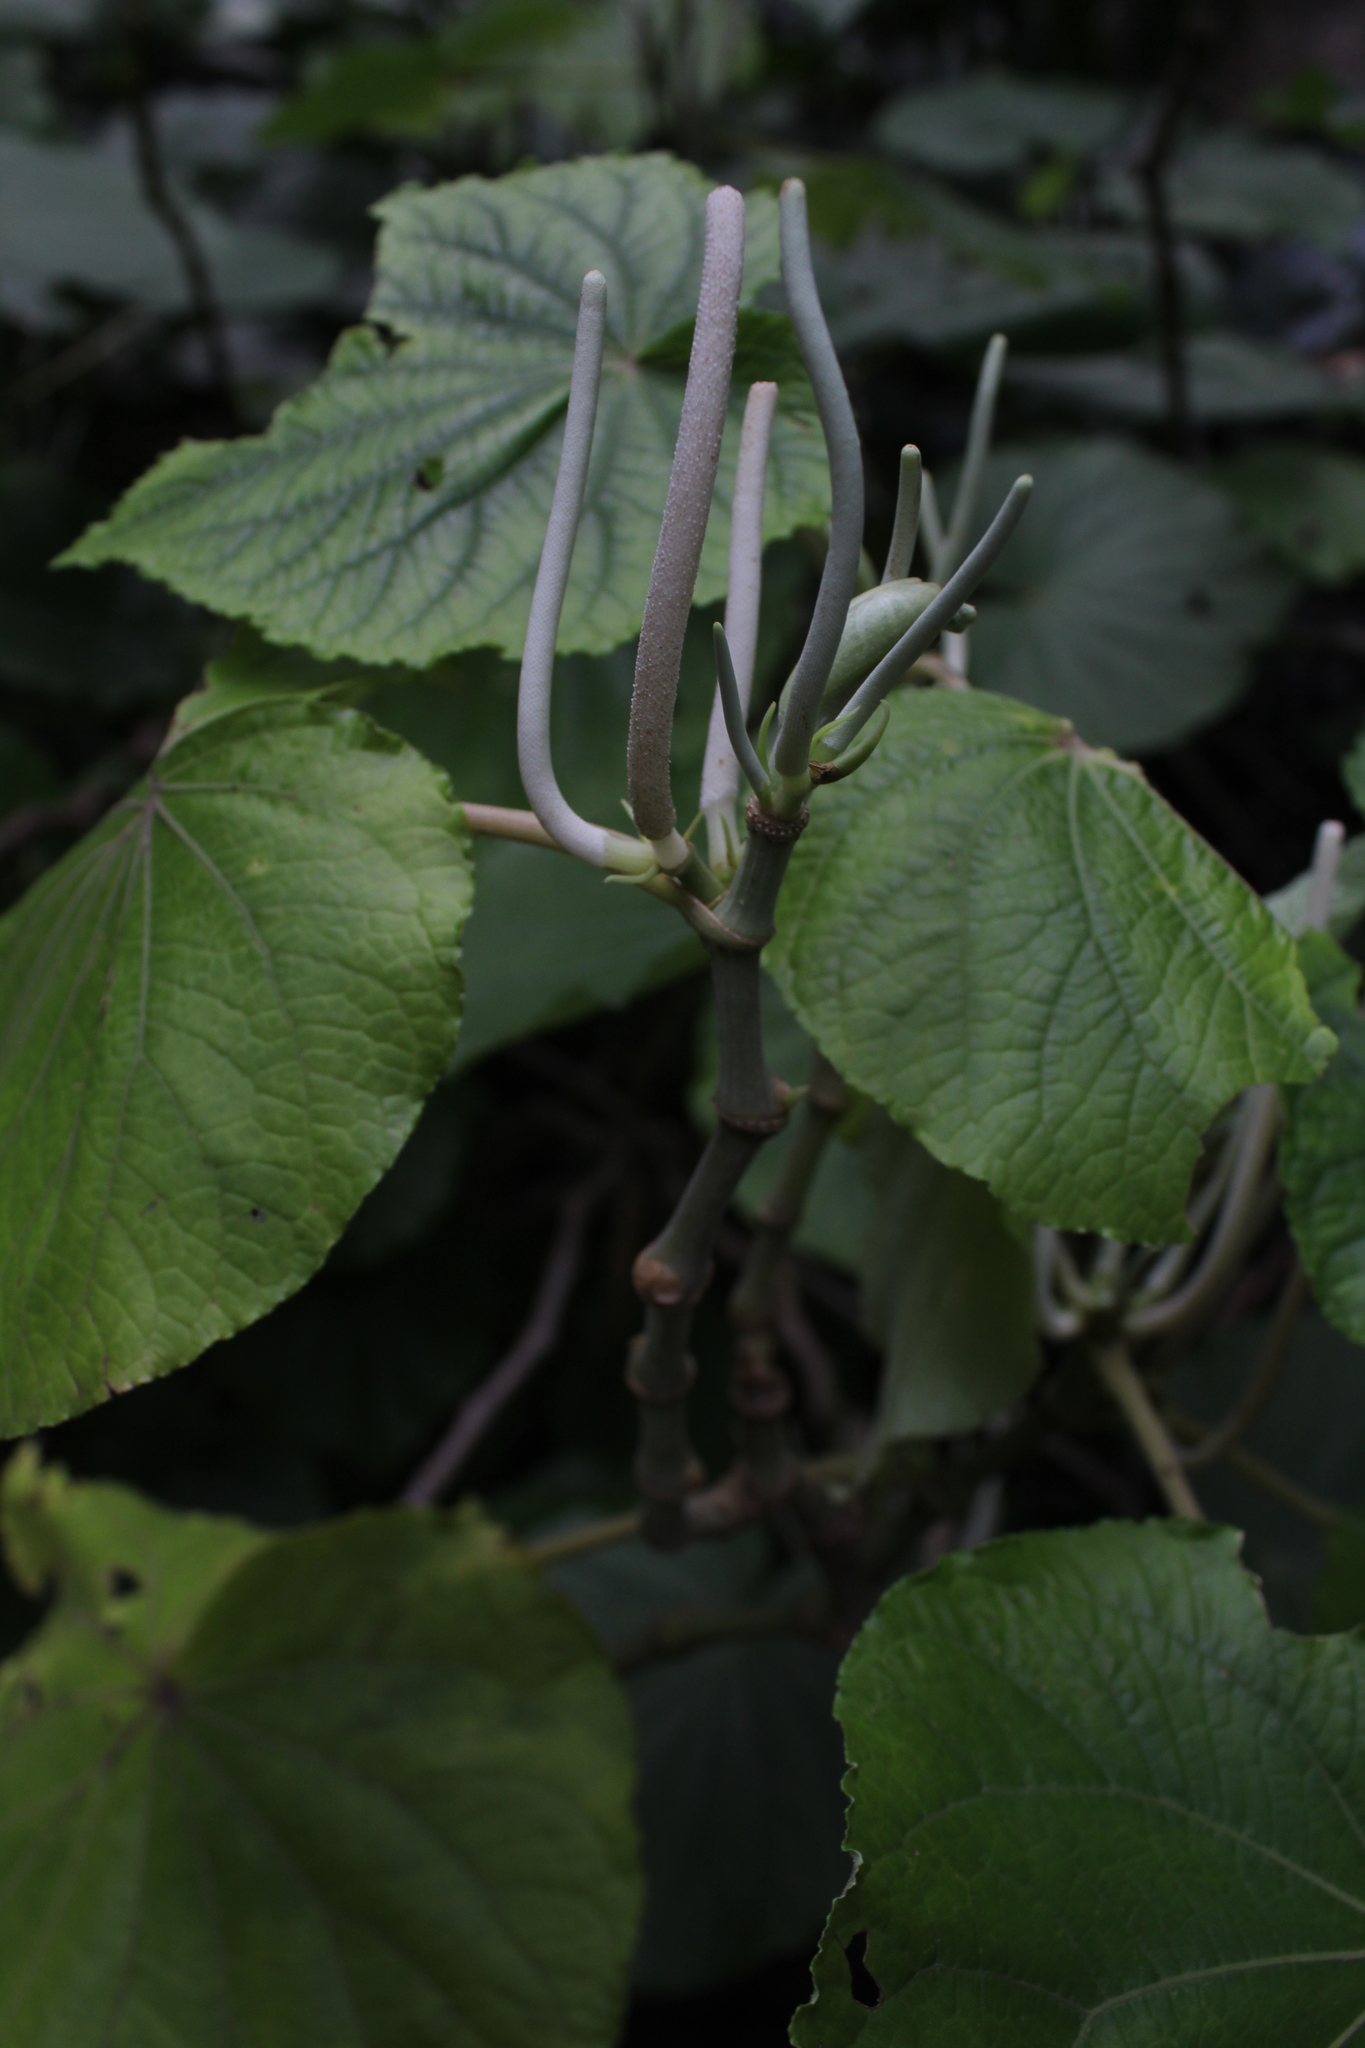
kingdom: Plantae
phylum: Tracheophyta
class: Magnoliopsida
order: Piperales
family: Piperaceae
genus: Piper
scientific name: Piper auritum
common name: Vera cruz pepper
